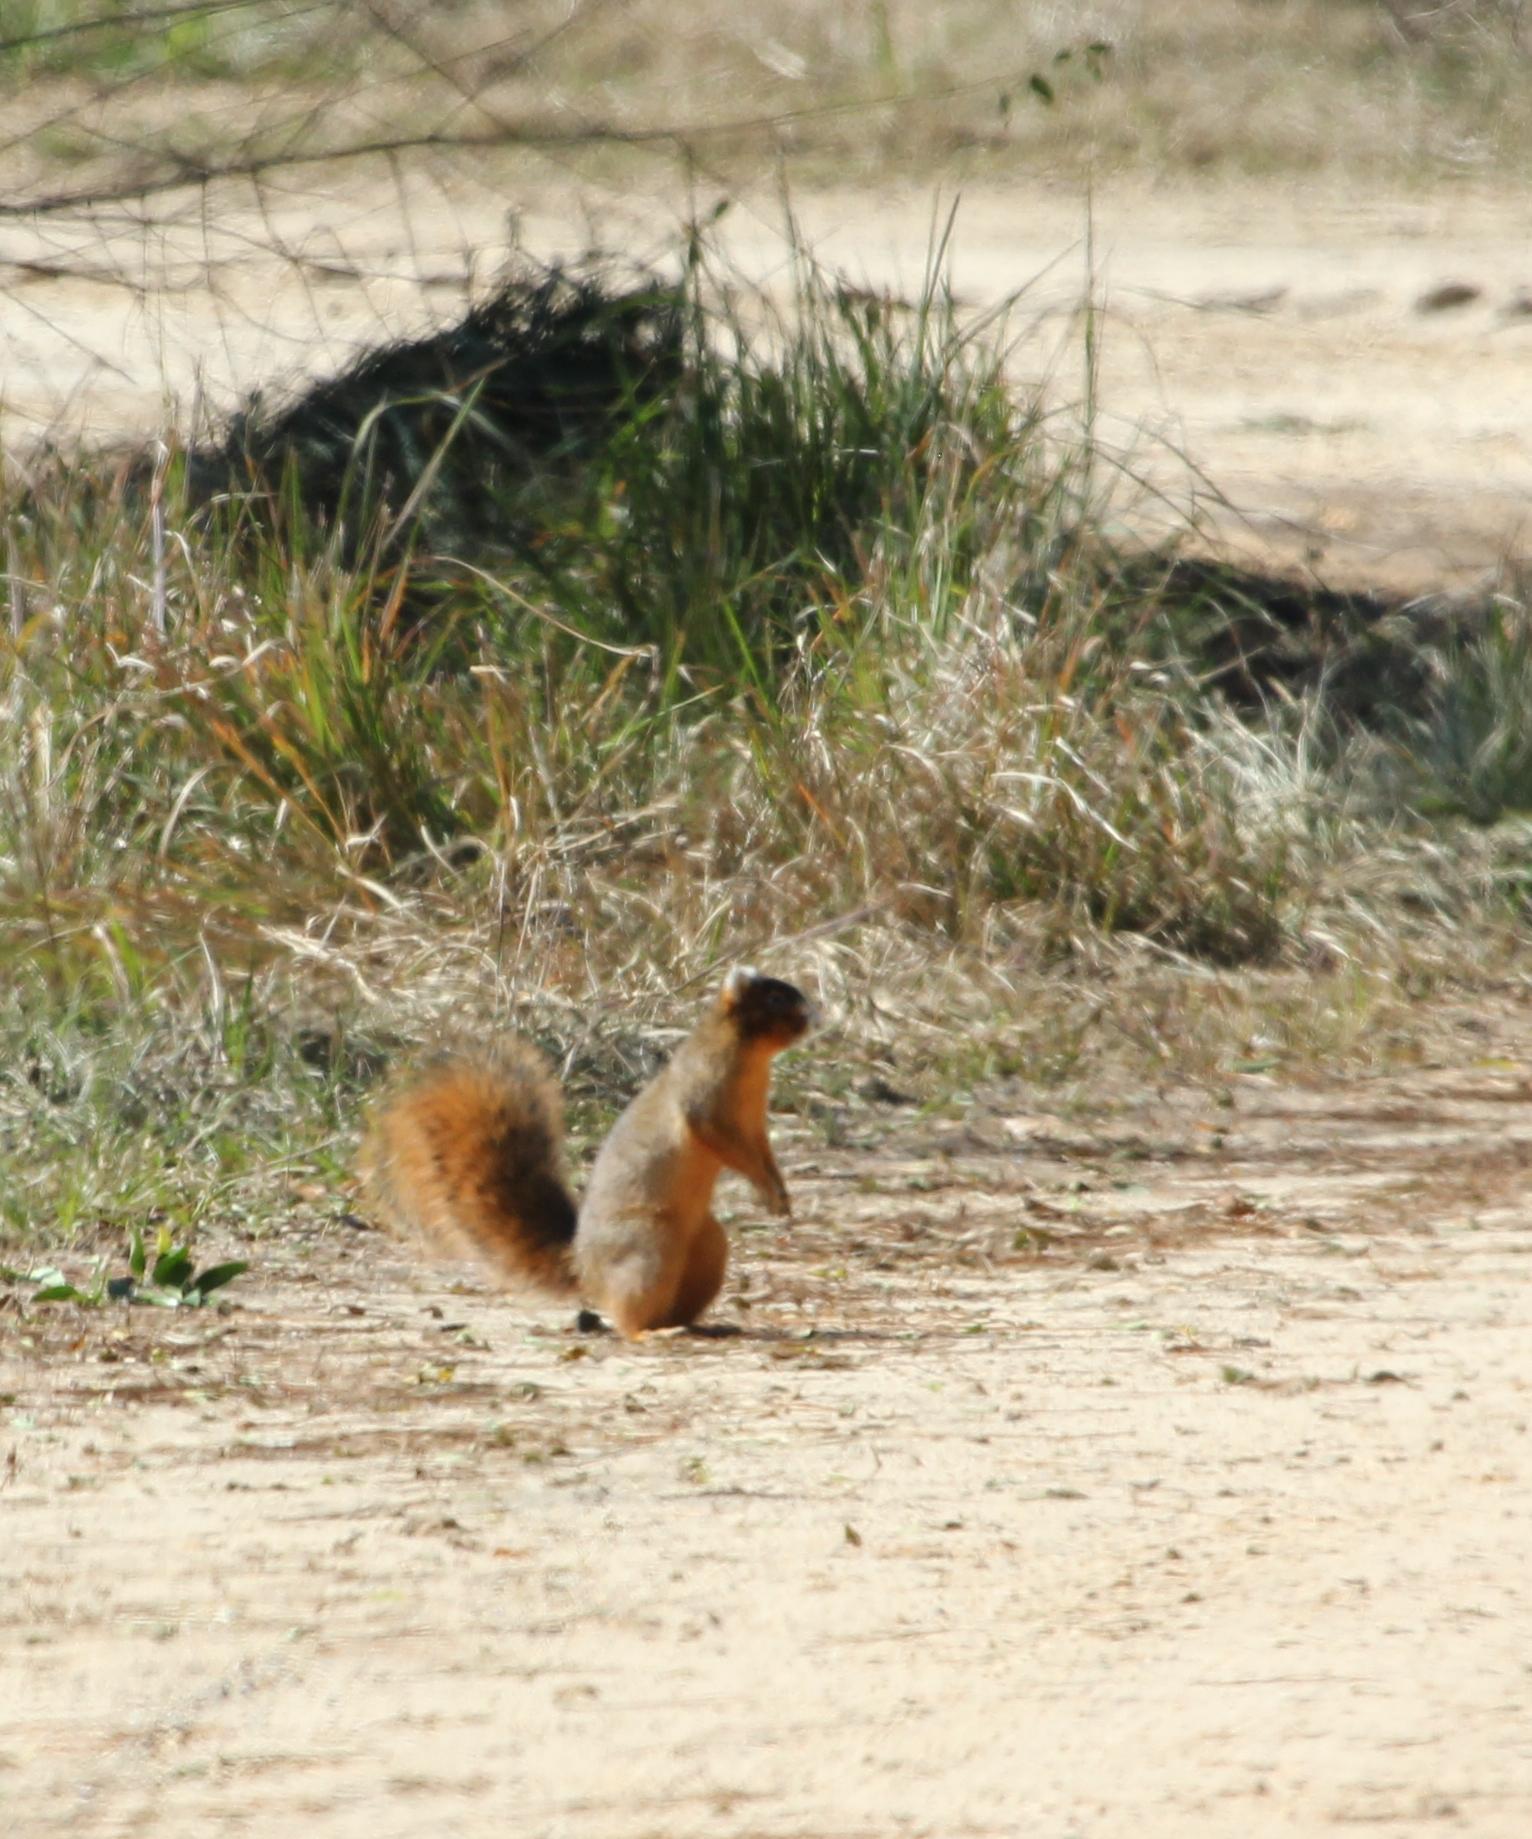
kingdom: Animalia
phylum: Chordata
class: Mammalia
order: Rodentia
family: Sciuridae
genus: Sciurus
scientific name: Sciurus niger
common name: Fox squirrel
